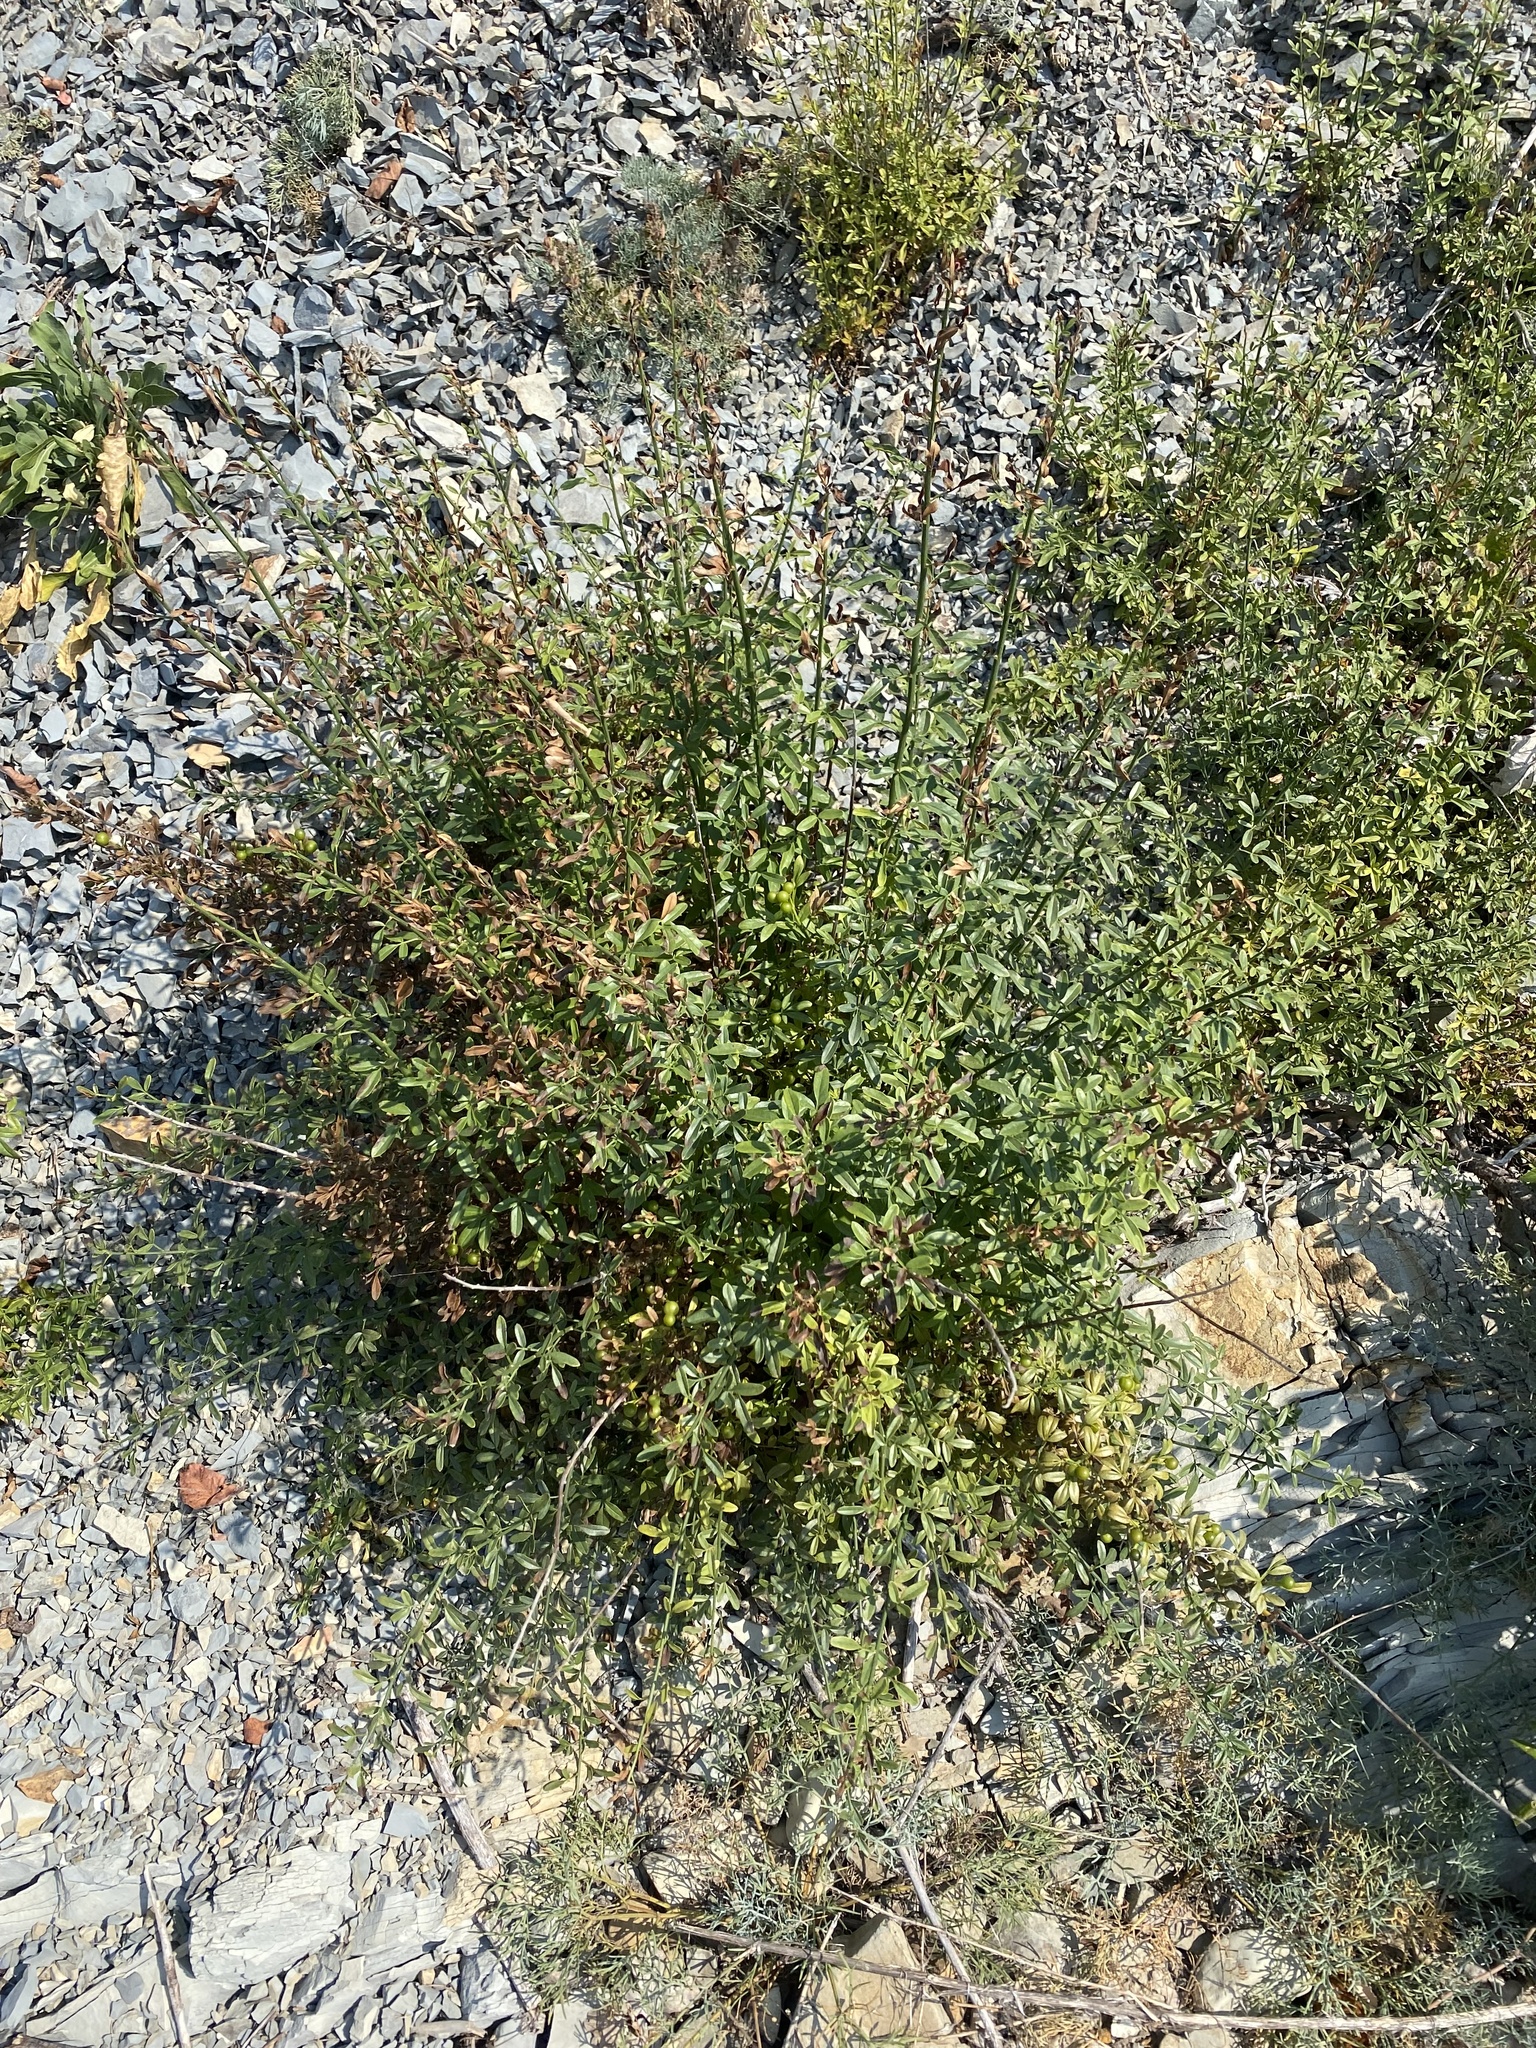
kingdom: Plantae
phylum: Tracheophyta
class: Magnoliopsida
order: Lamiales
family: Oleaceae
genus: Chrysojasminum
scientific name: Chrysojasminum fruticans
